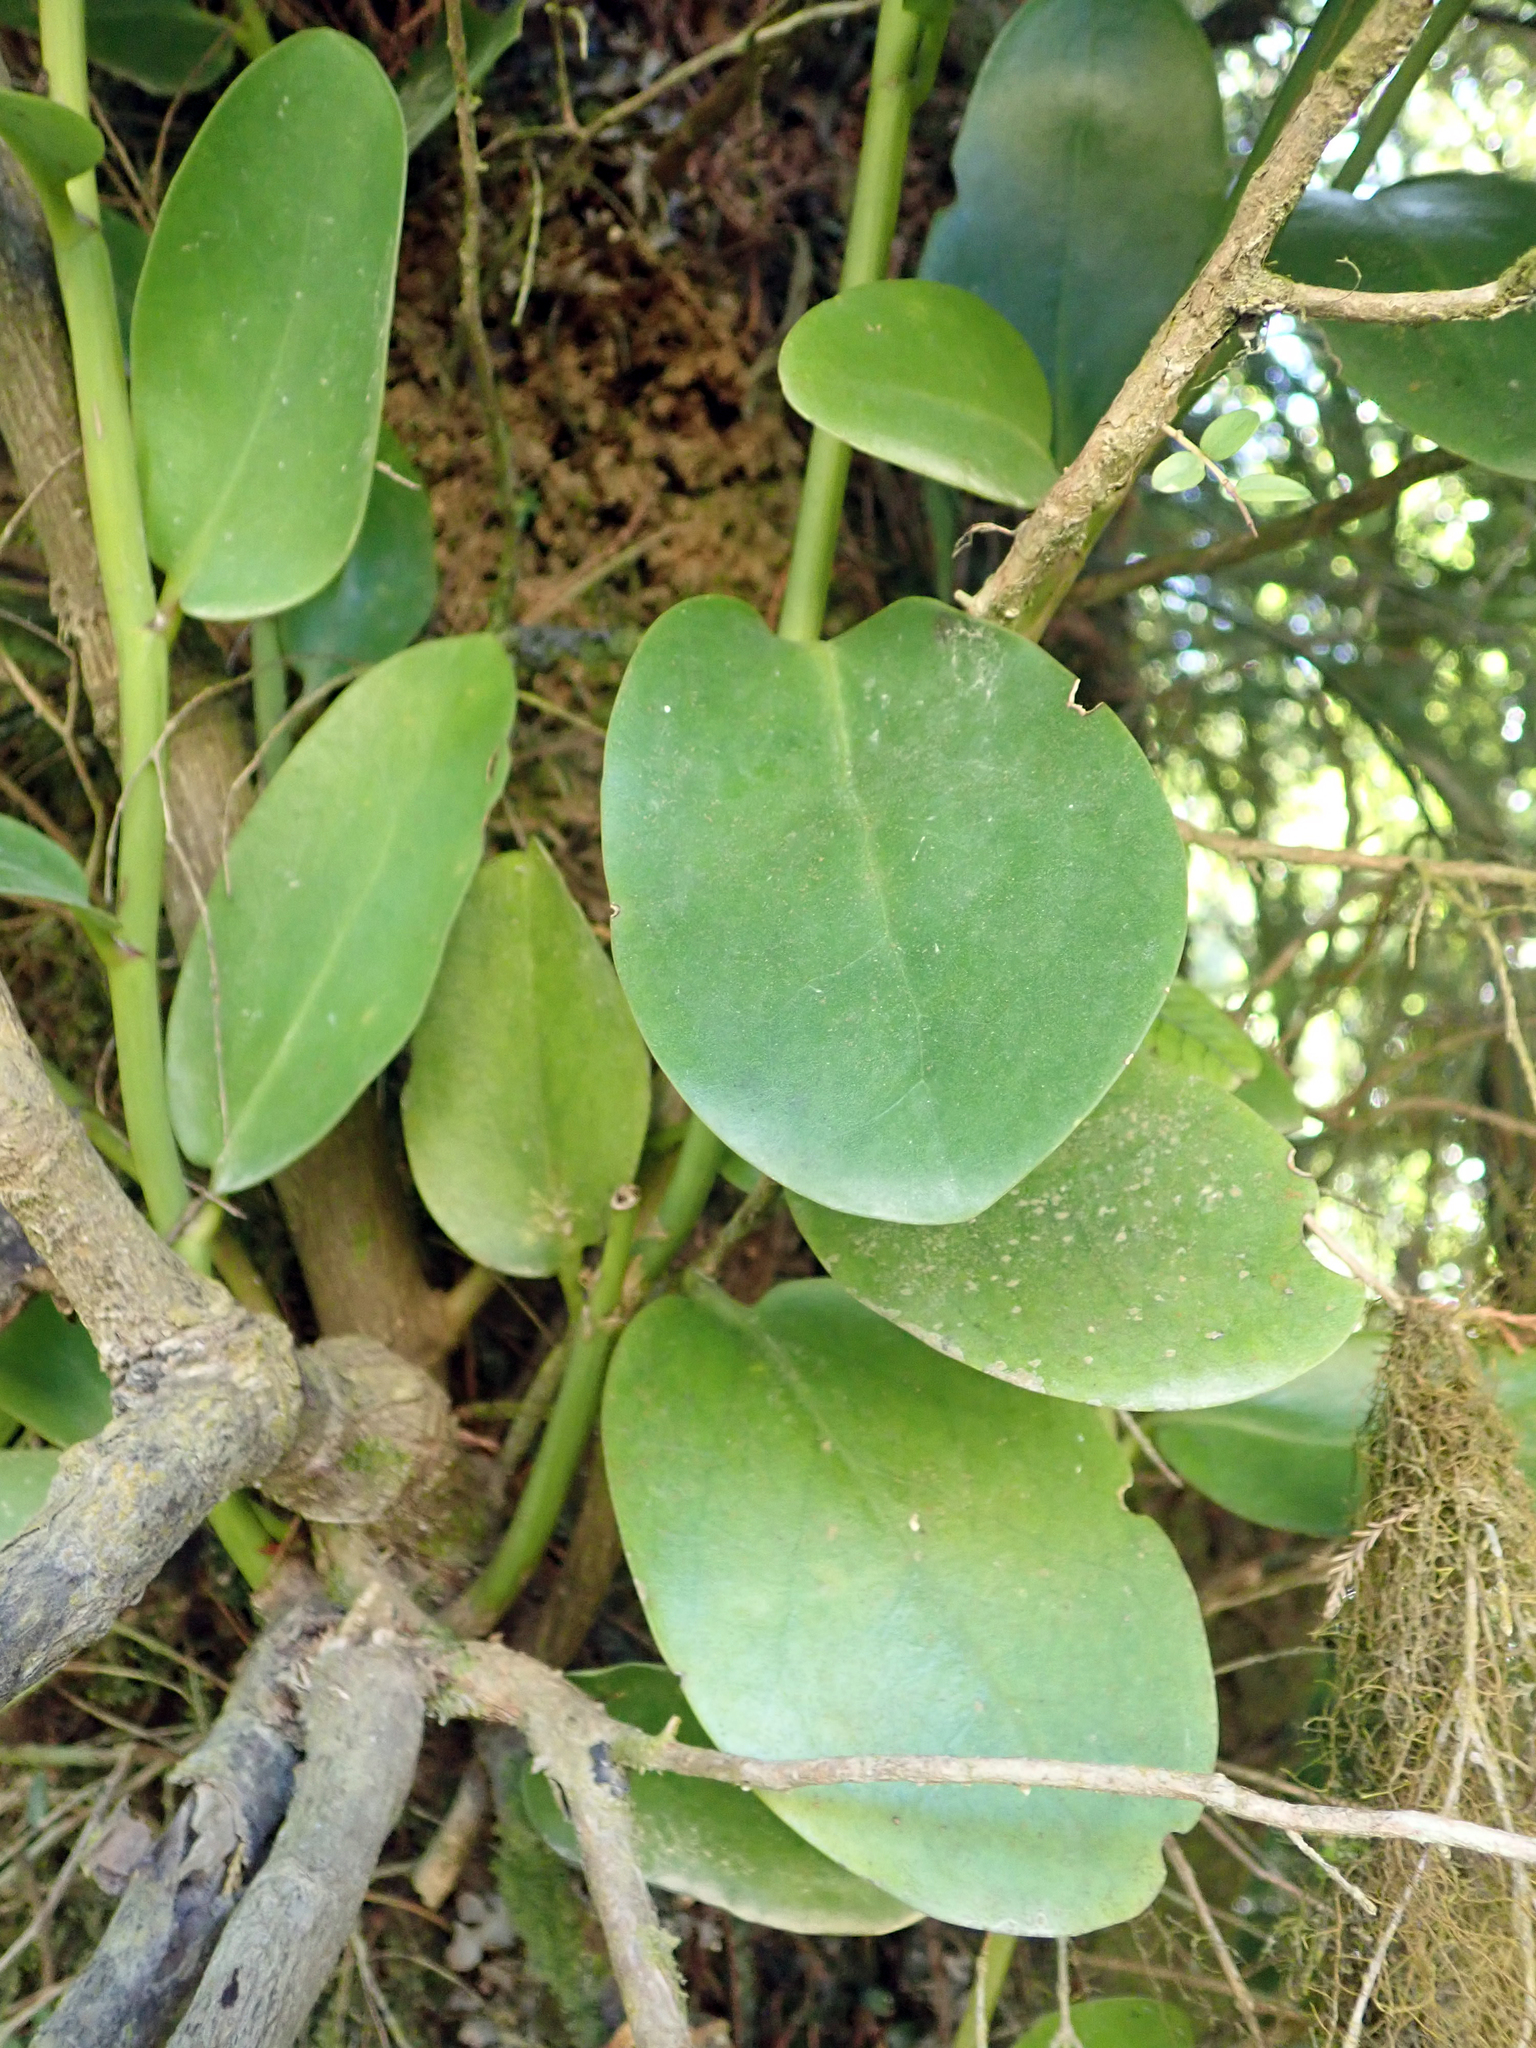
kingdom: Plantae
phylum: Tracheophyta
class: Magnoliopsida
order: Apiales
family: Griseliniaceae
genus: Griselinia
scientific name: Griselinia lucida
